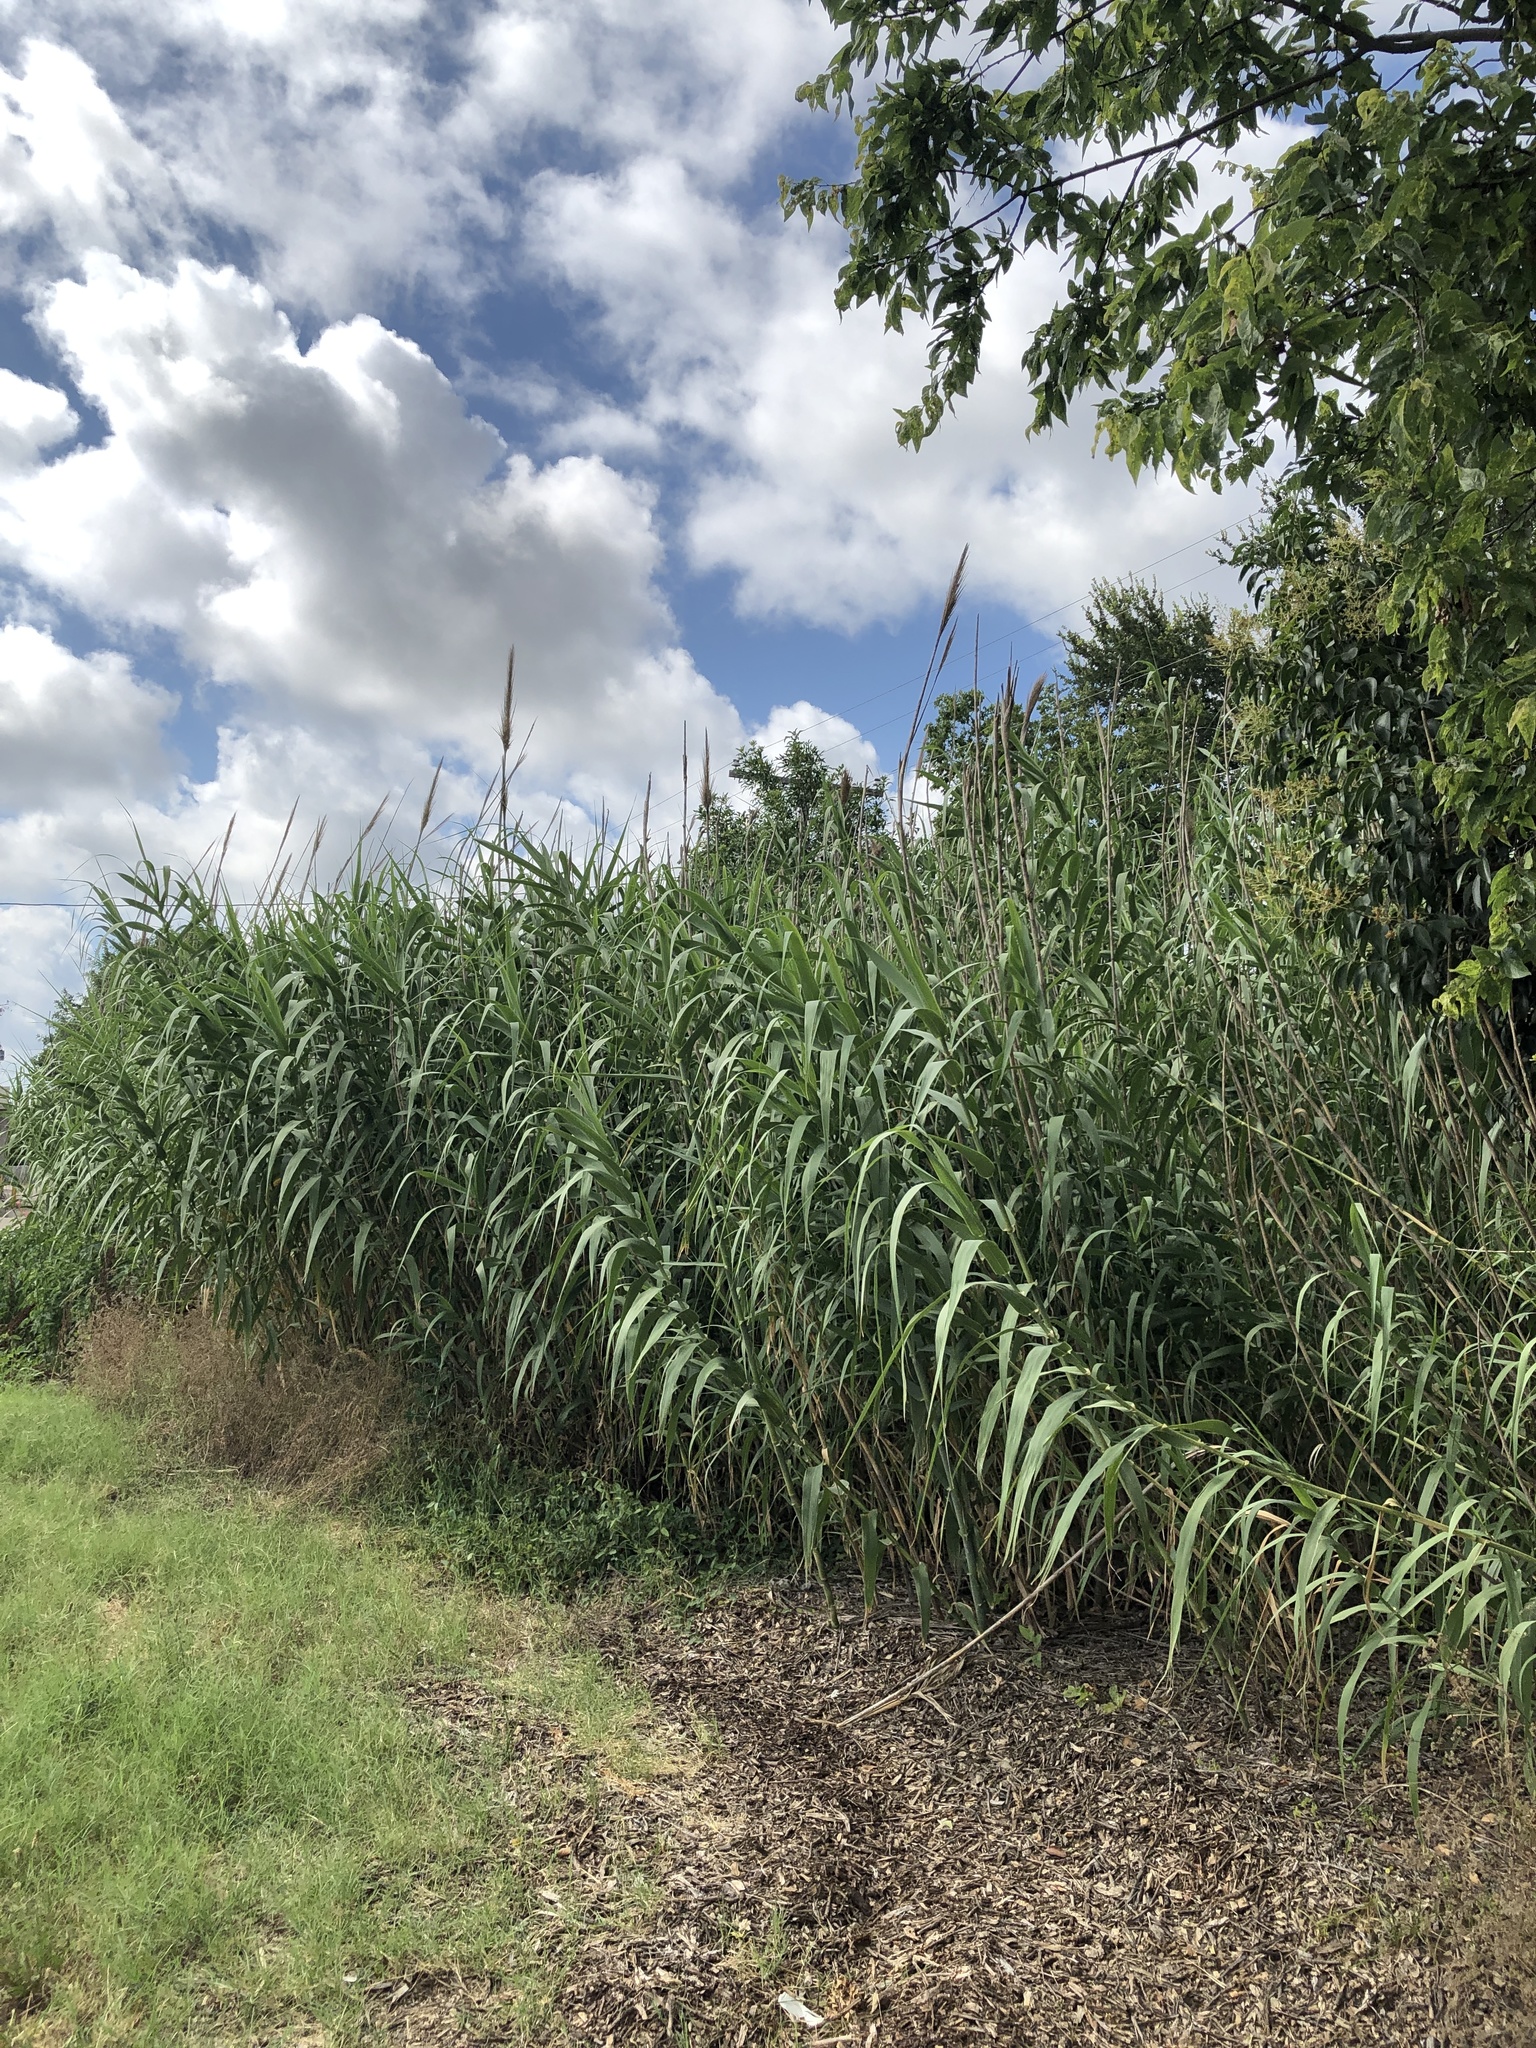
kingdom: Plantae
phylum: Tracheophyta
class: Liliopsida
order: Poales
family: Poaceae
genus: Arundo
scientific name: Arundo donax
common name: Giant reed
